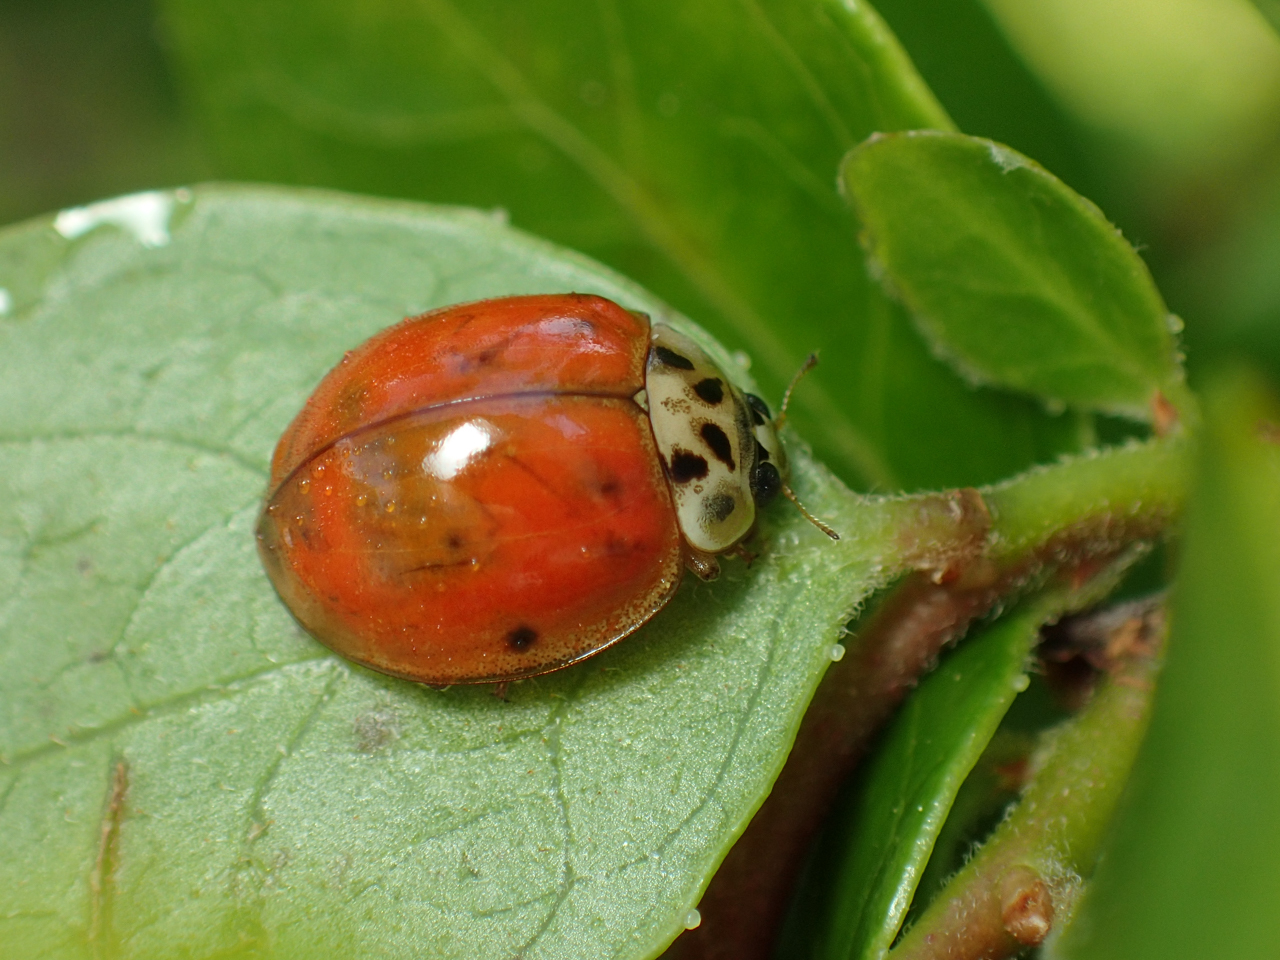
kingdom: Animalia
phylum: Arthropoda
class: Insecta
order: Coleoptera
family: Coccinellidae
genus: Harmonia
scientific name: Harmonia axyridis
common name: Harlequin ladybird
